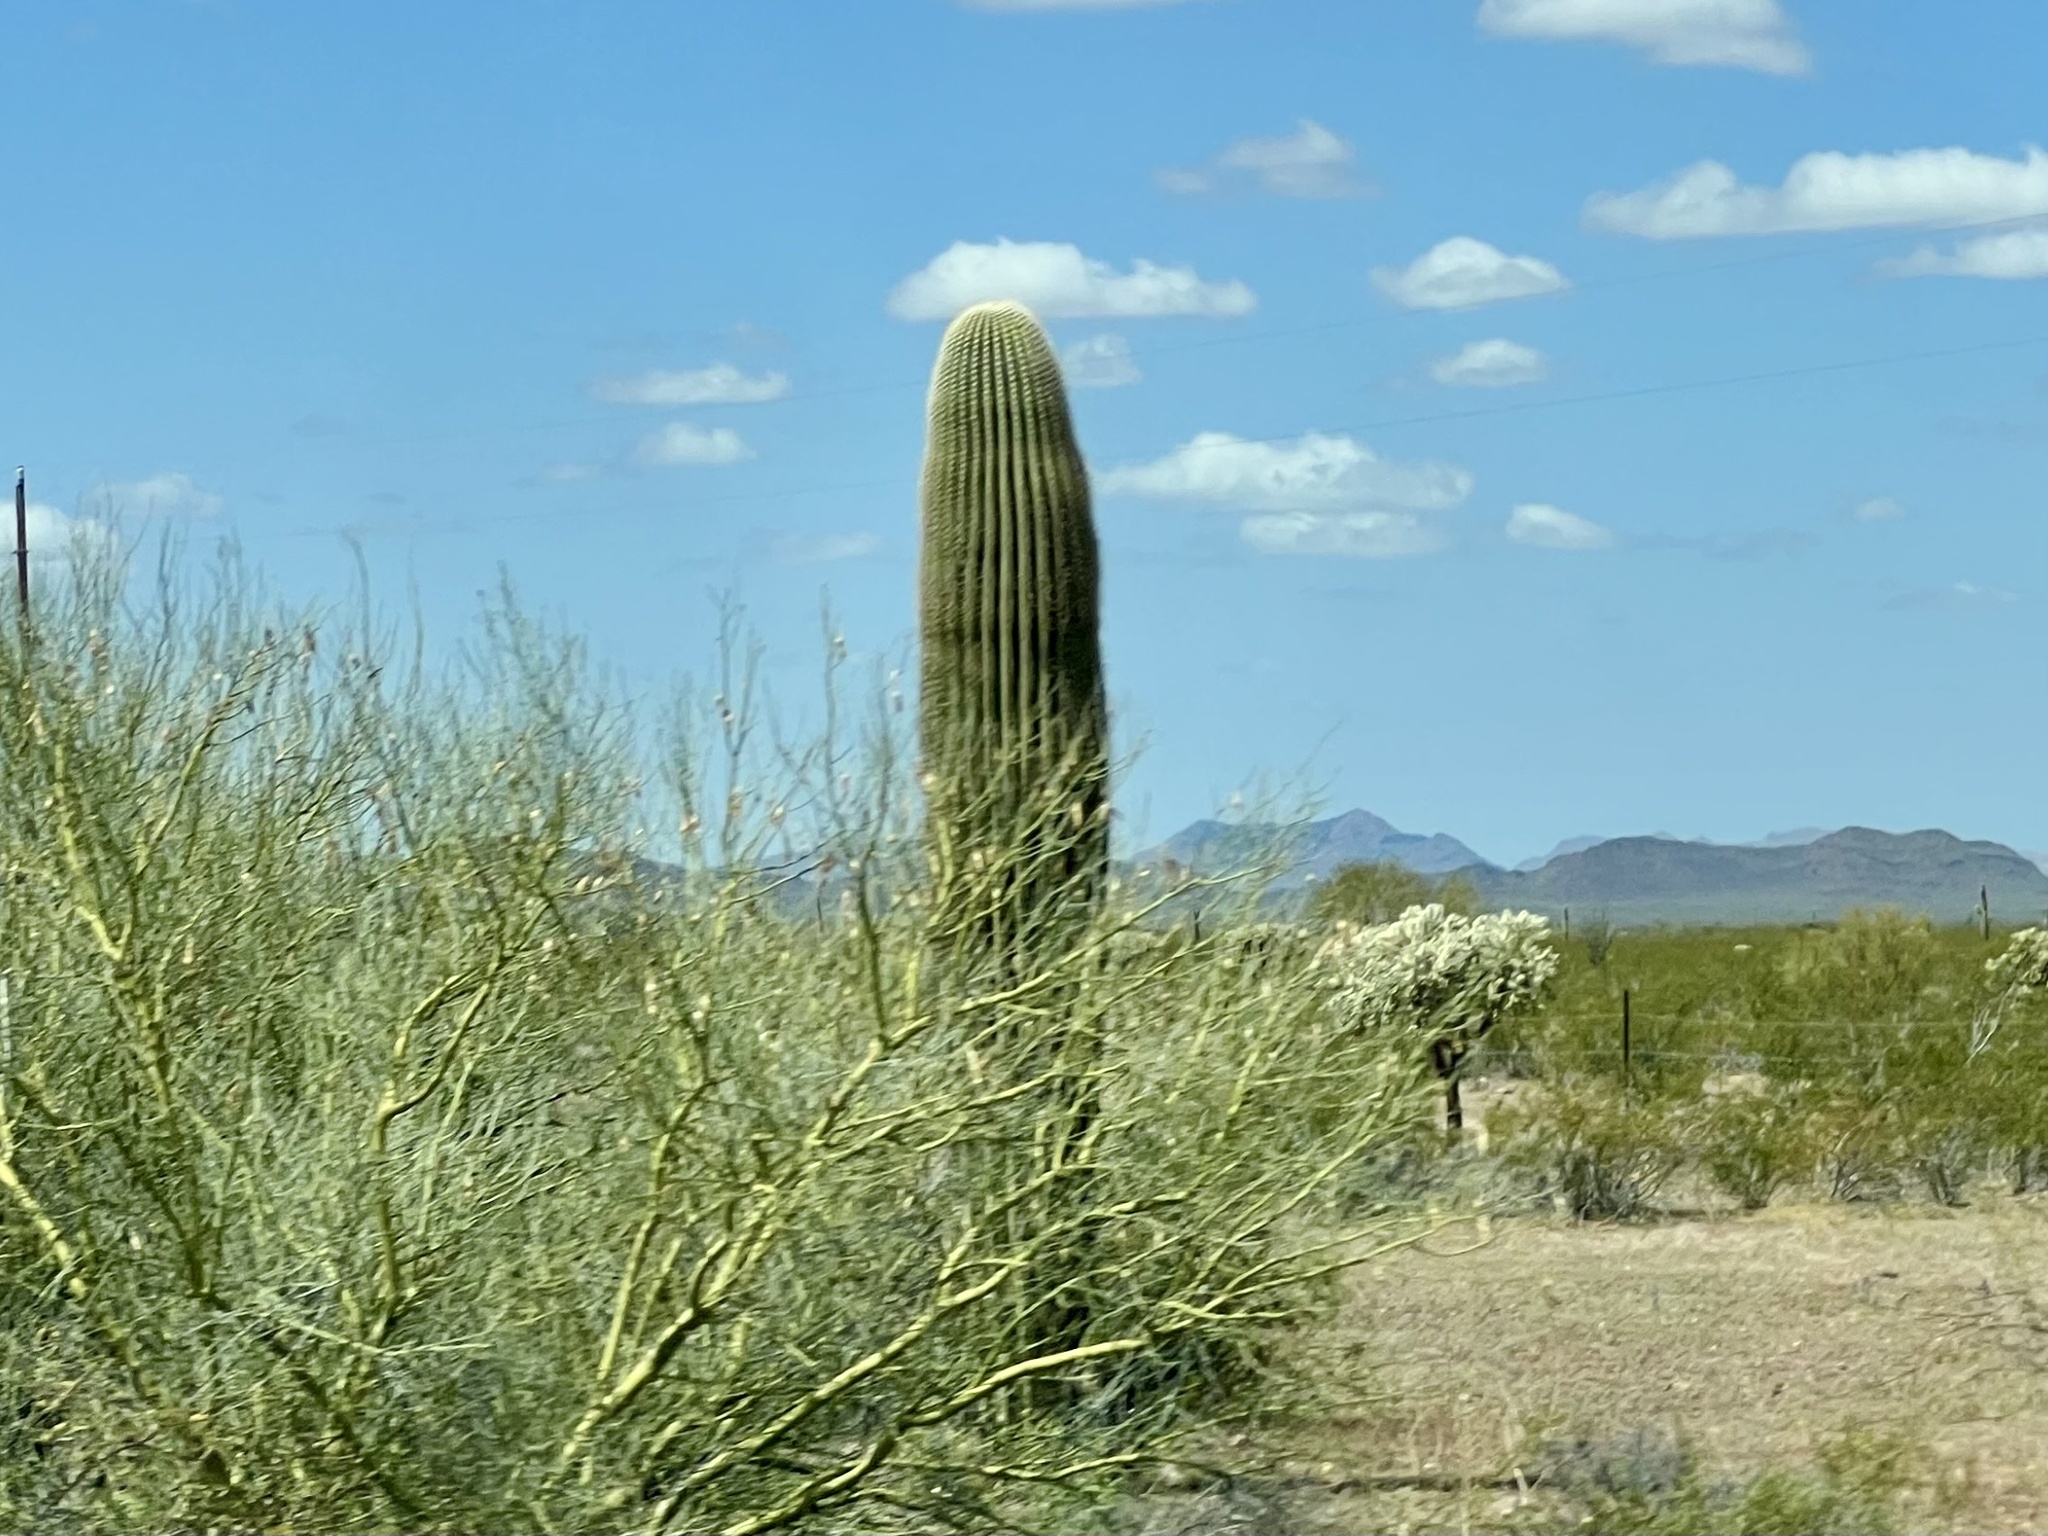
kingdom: Plantae
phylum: Tracheophyta
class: Magnoliopsida
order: Caryophyllales
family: Cactaceae
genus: Carnegiea
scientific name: Carnegiea gigantea
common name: Saguaro
